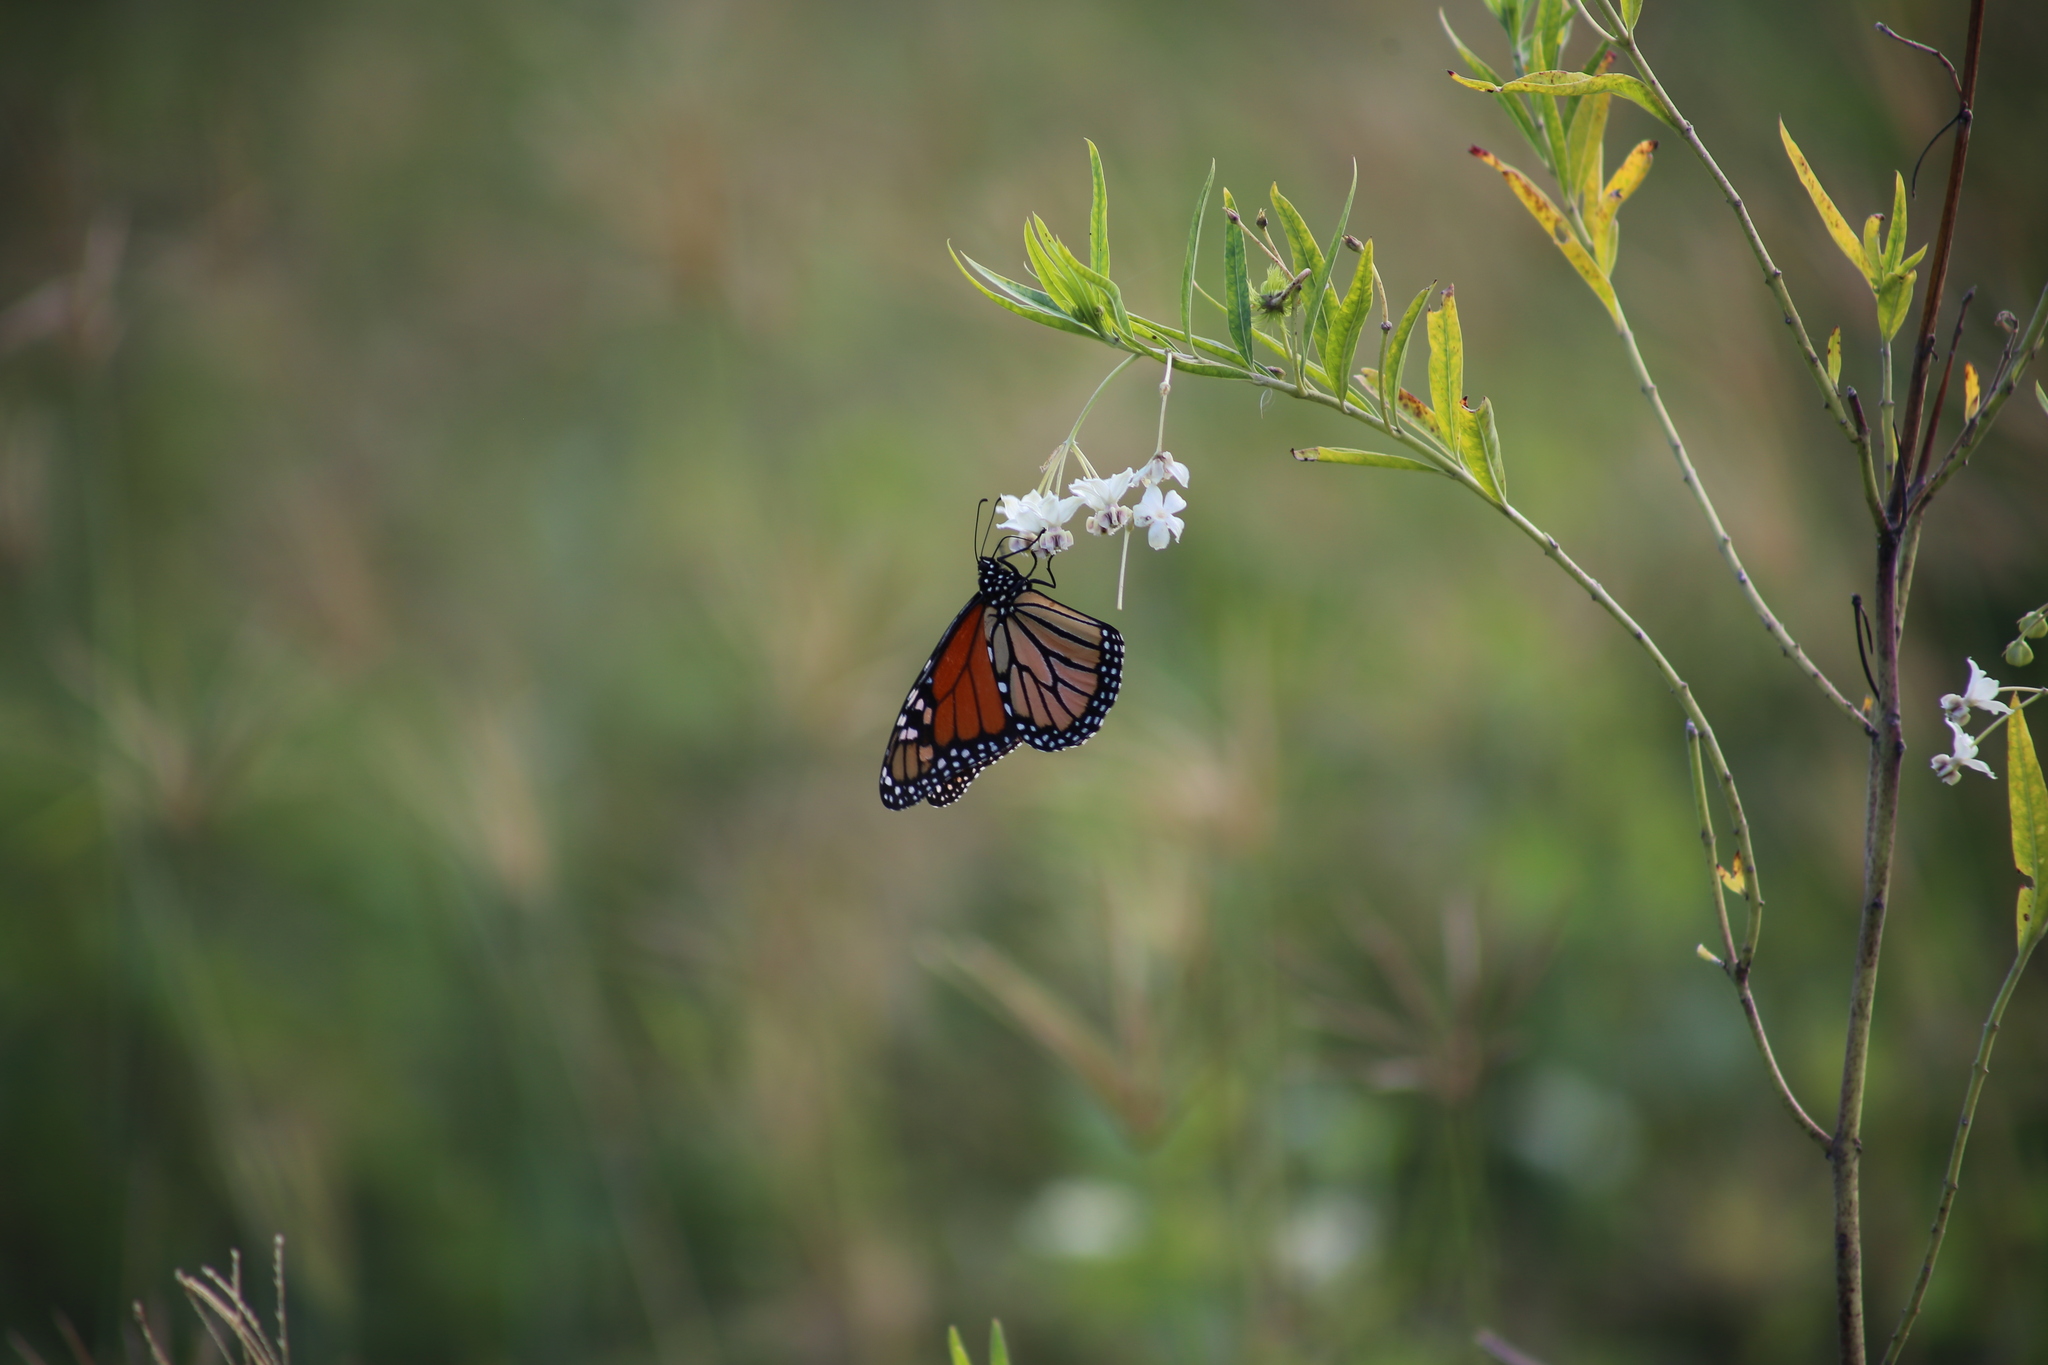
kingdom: Animalia
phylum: Arthropoda
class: Insecta
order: Lepidoptera
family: Nymphalidae
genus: Danaus
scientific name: Danaus plexippus
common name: Monarch
